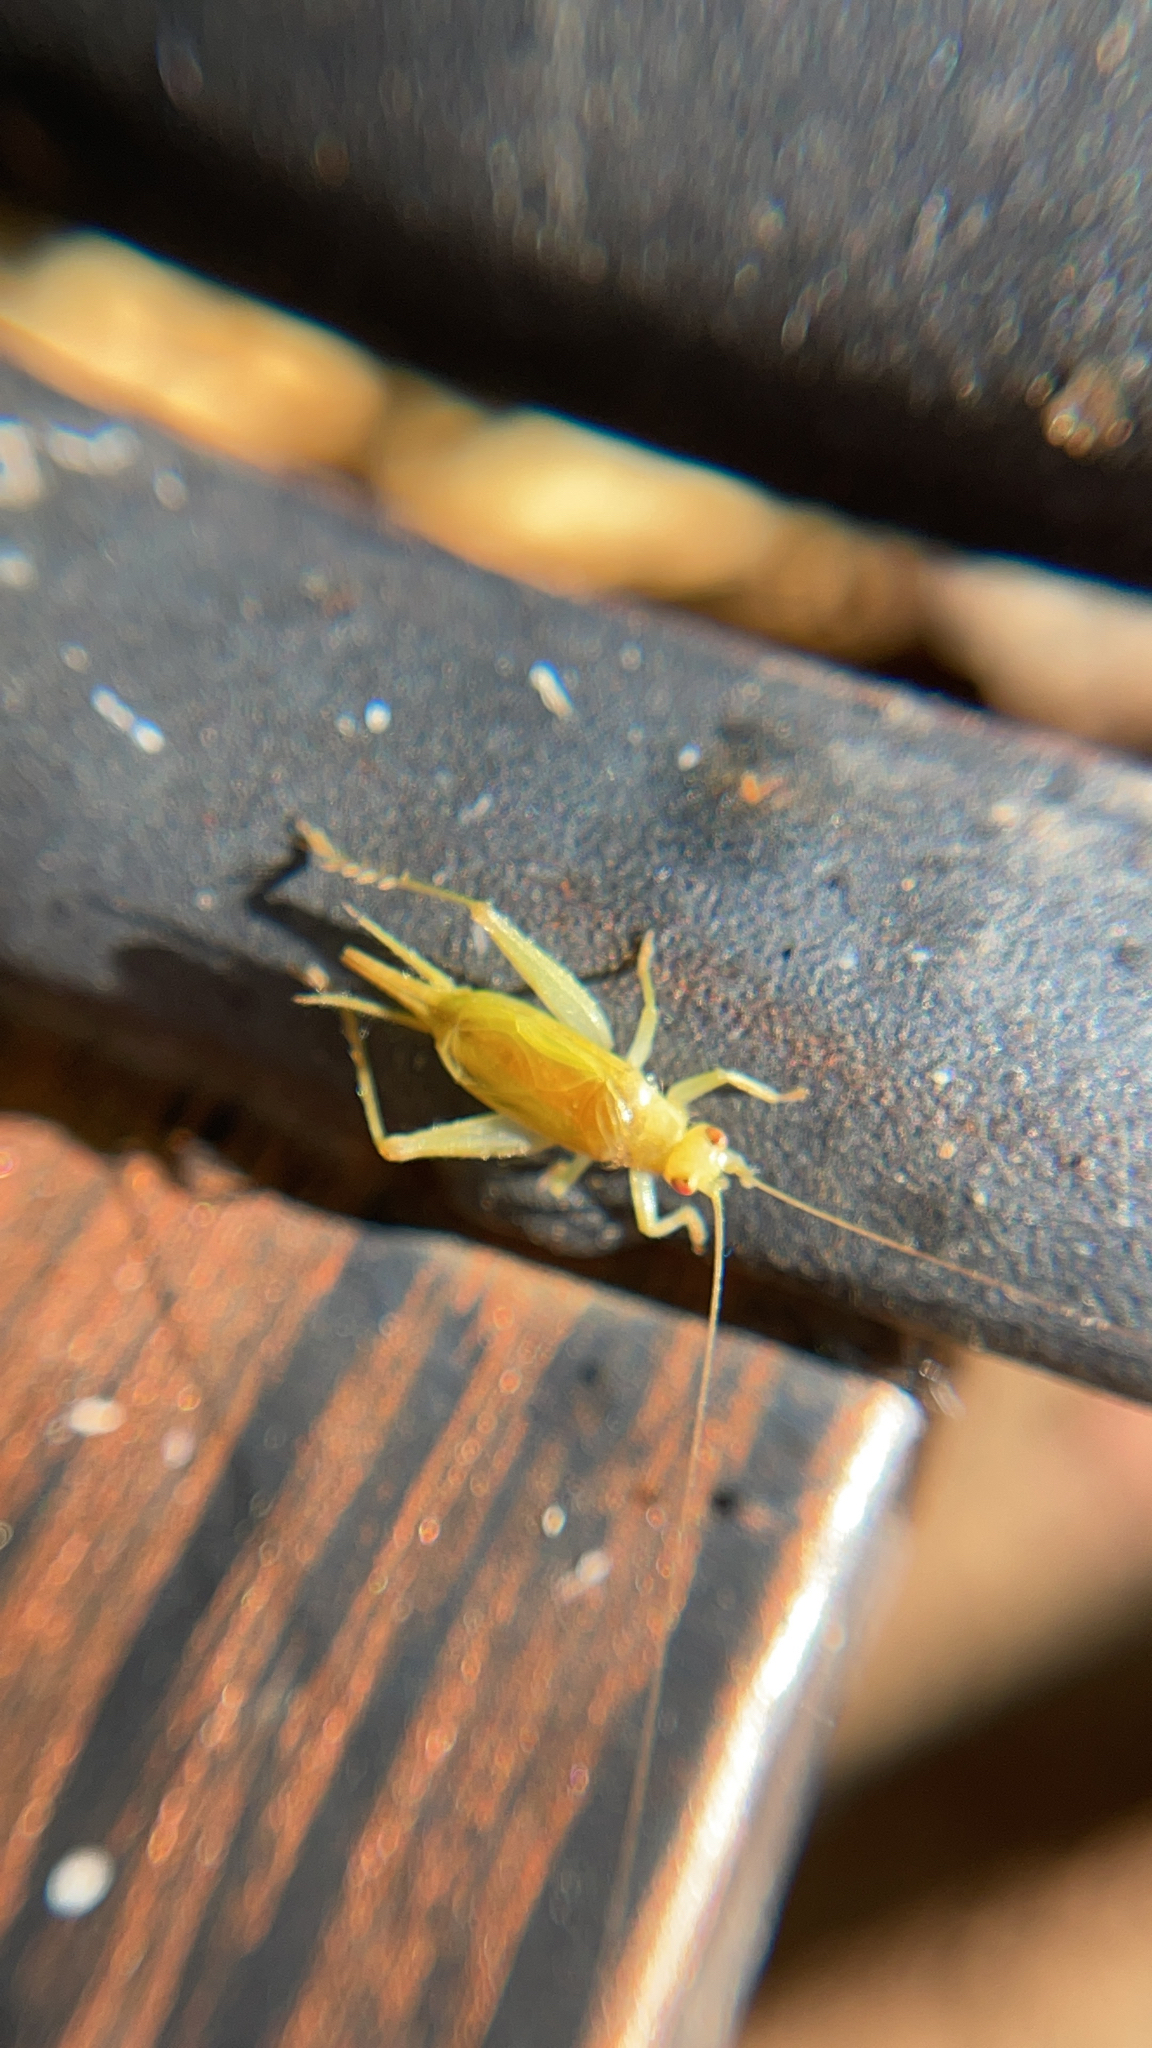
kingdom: Animalia
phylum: Arthropoda
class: Insecta
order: Orthoptera
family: Trigonidiidae
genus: Cyrtoxipha
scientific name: Cyrtoxipha columbiana
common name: Columbian trig
